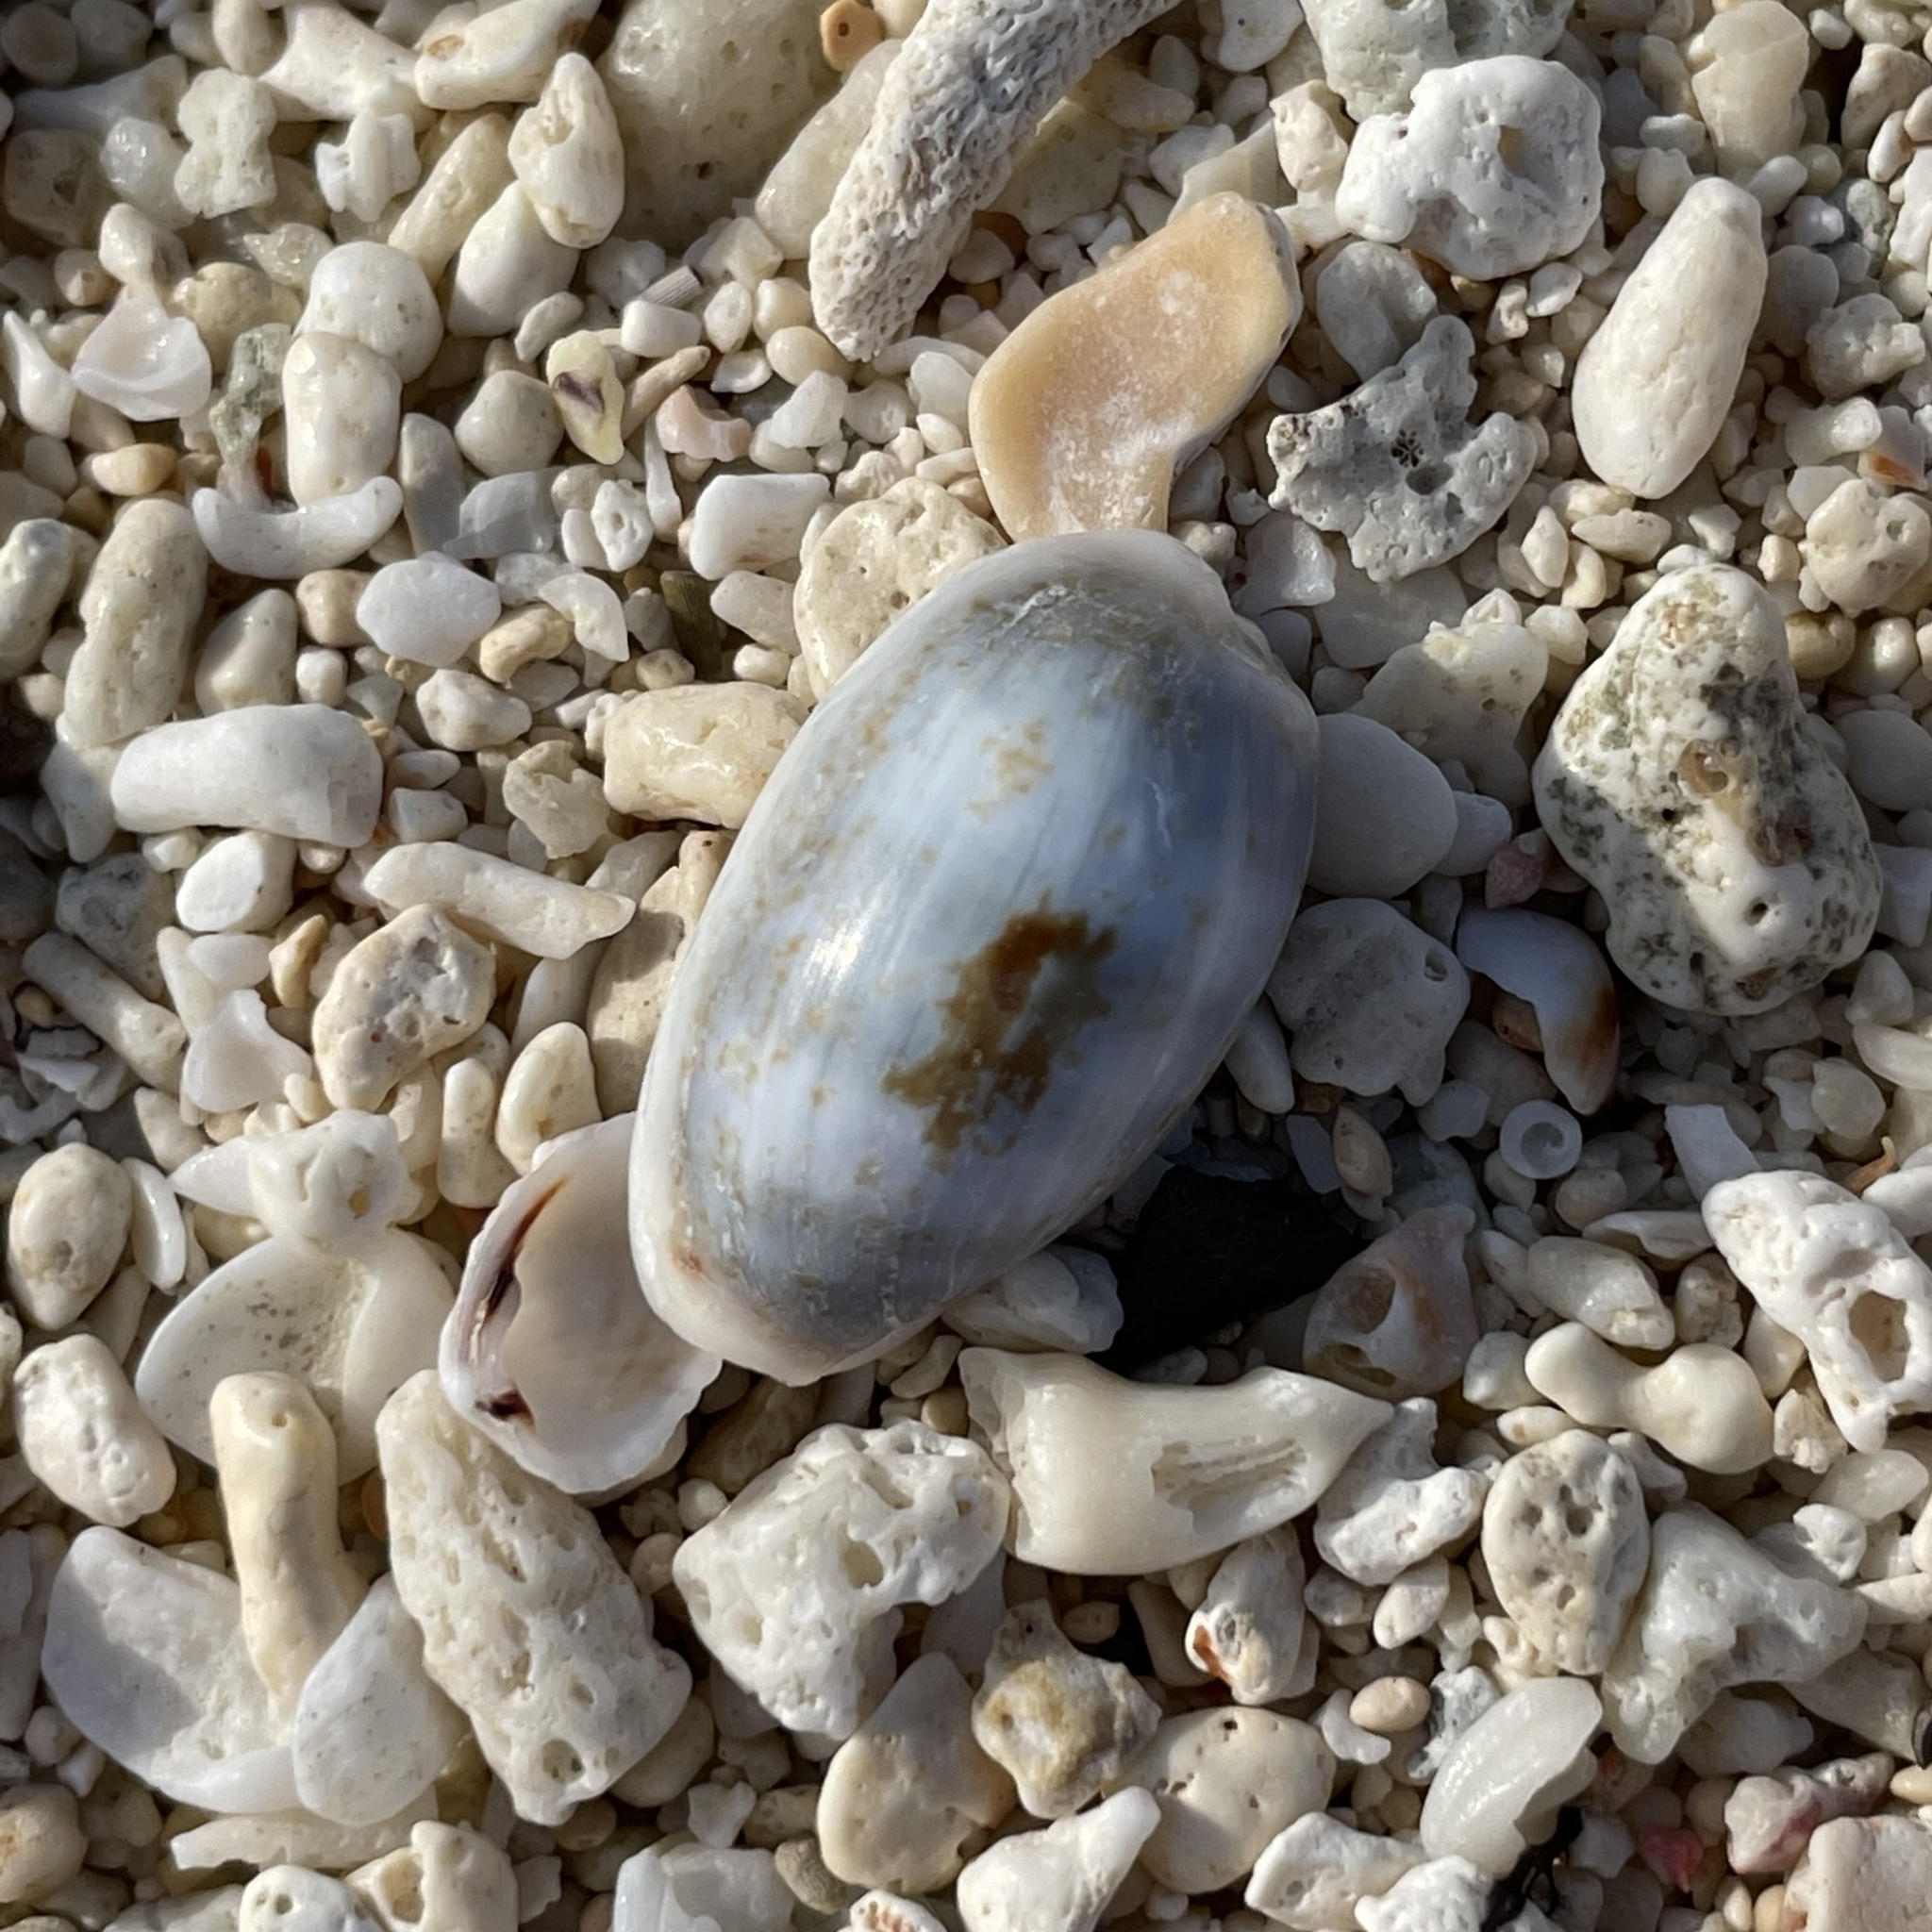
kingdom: Animalia
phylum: Mollusca
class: Gastropoda
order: Littorinimorpha
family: Cypraeidae
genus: Erronea
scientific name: Erronea errones
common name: Mistaken cowrie
